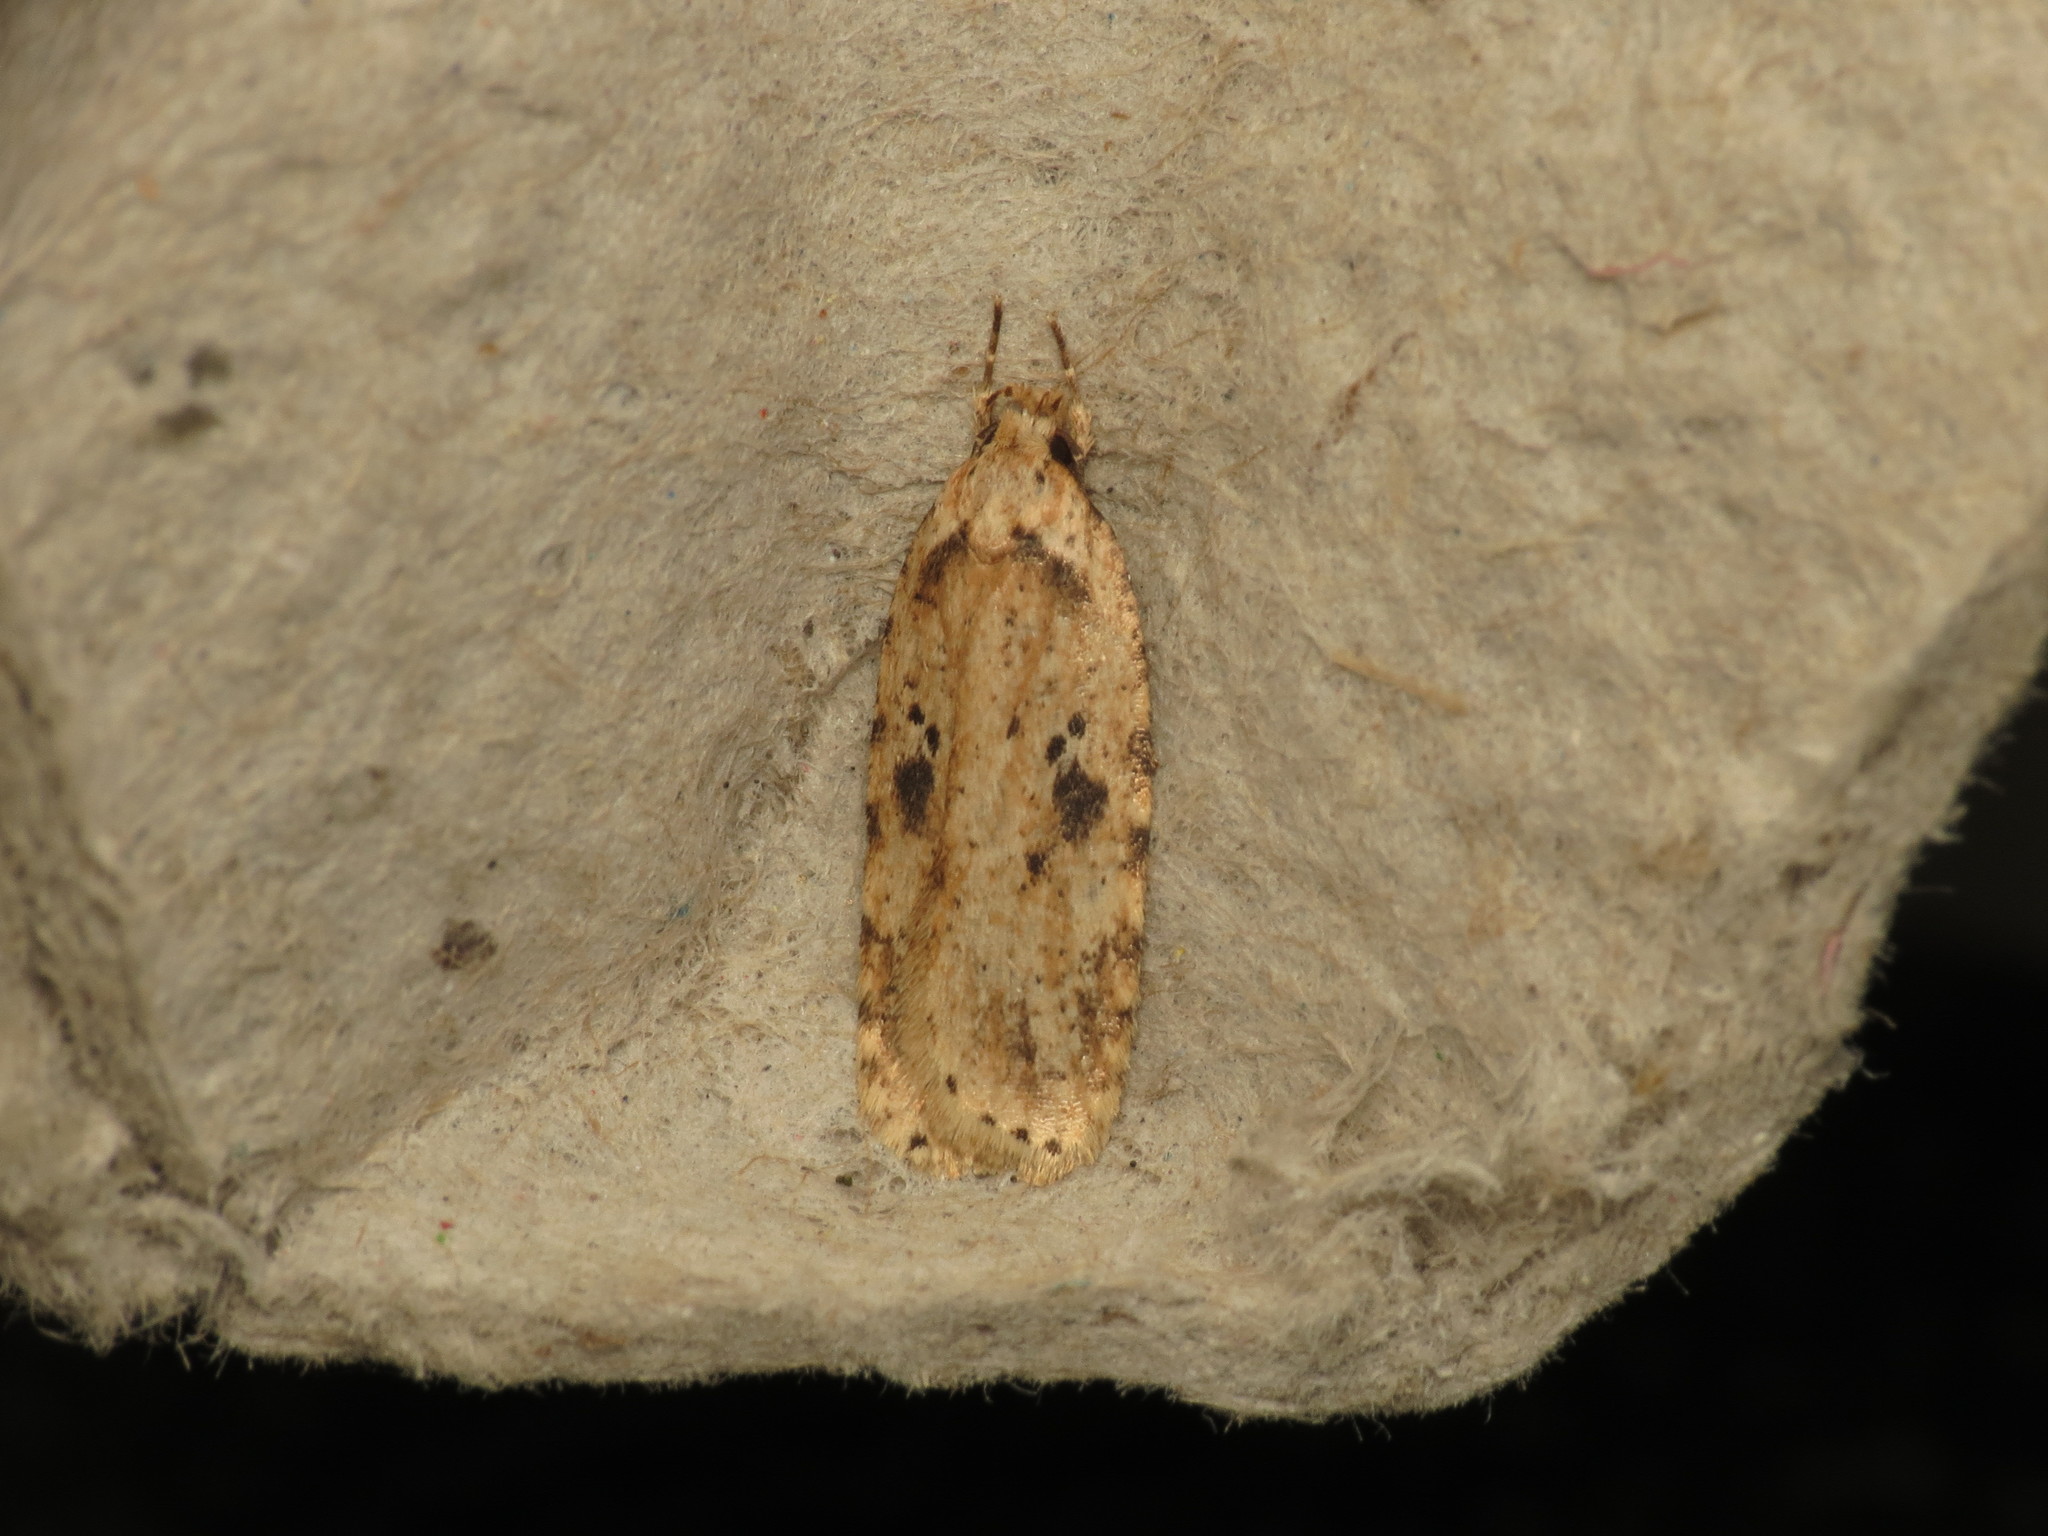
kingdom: Animalia
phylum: Arthropoda
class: Insecta
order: Lepidoptera
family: Depressariidae
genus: Agonopterix
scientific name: Agonopterix arenella
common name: Brindled flat-body
